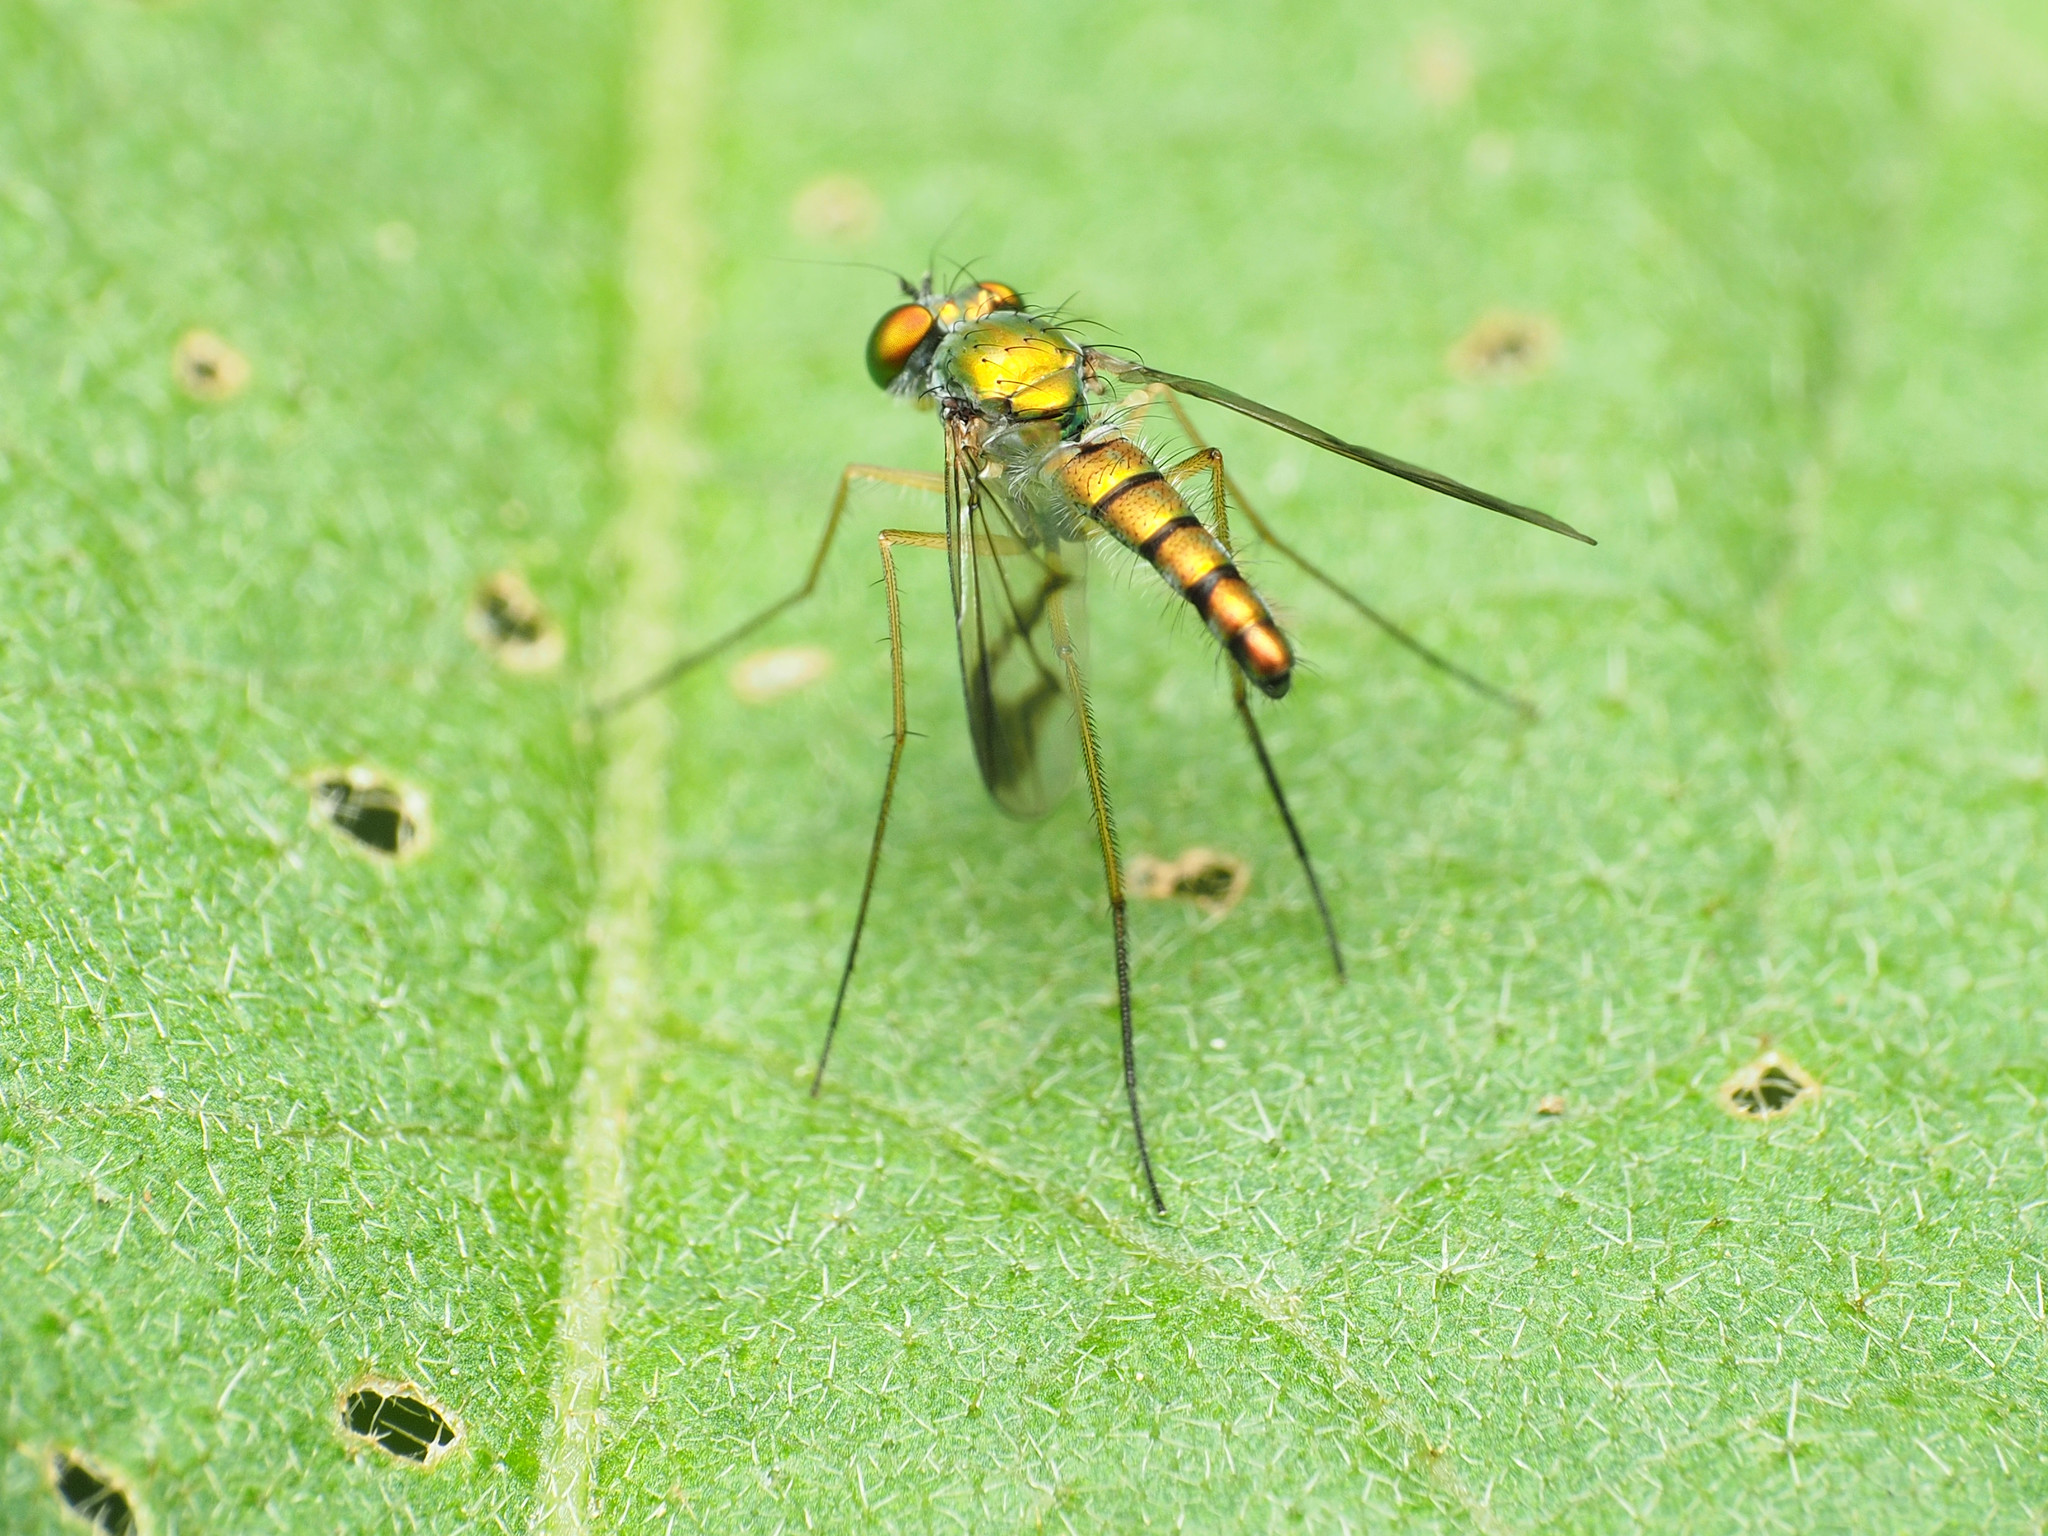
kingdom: Animalia
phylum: Arthropoda
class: Insecta
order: Diptera
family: Dolichopodidae
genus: Condylostylus
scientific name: Condylostylus
